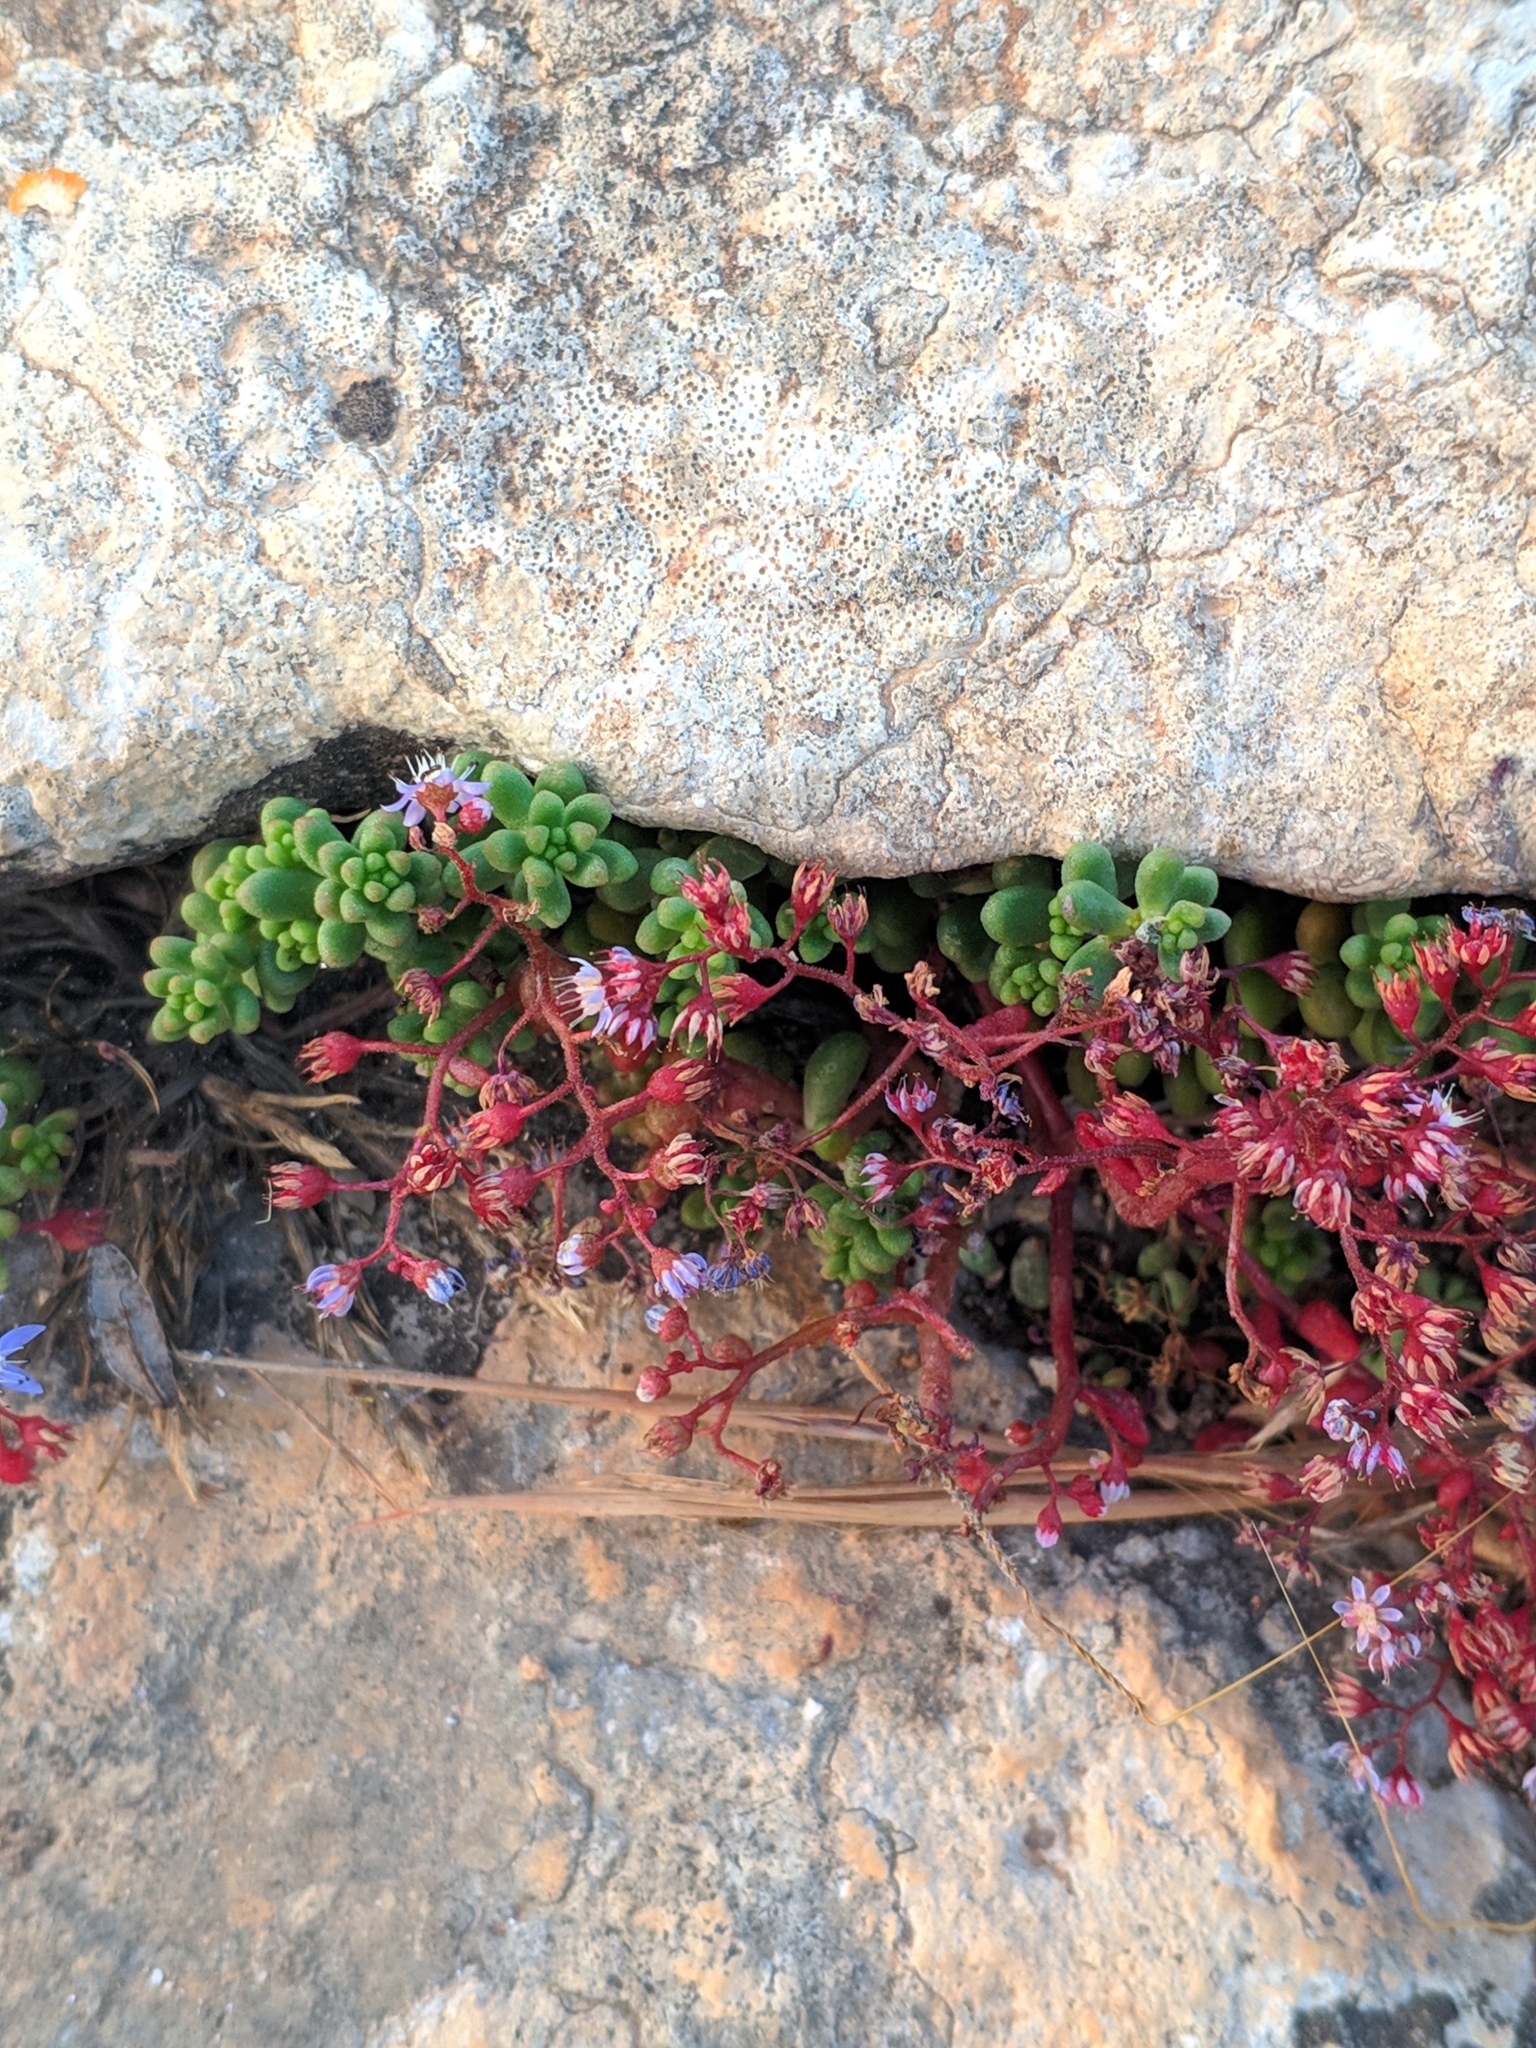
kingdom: Plantae
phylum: Tracheophyta
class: Magnoliopsida
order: Saxifragales
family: Crassulaceae
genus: Sedum
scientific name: Sedum caeruleum
